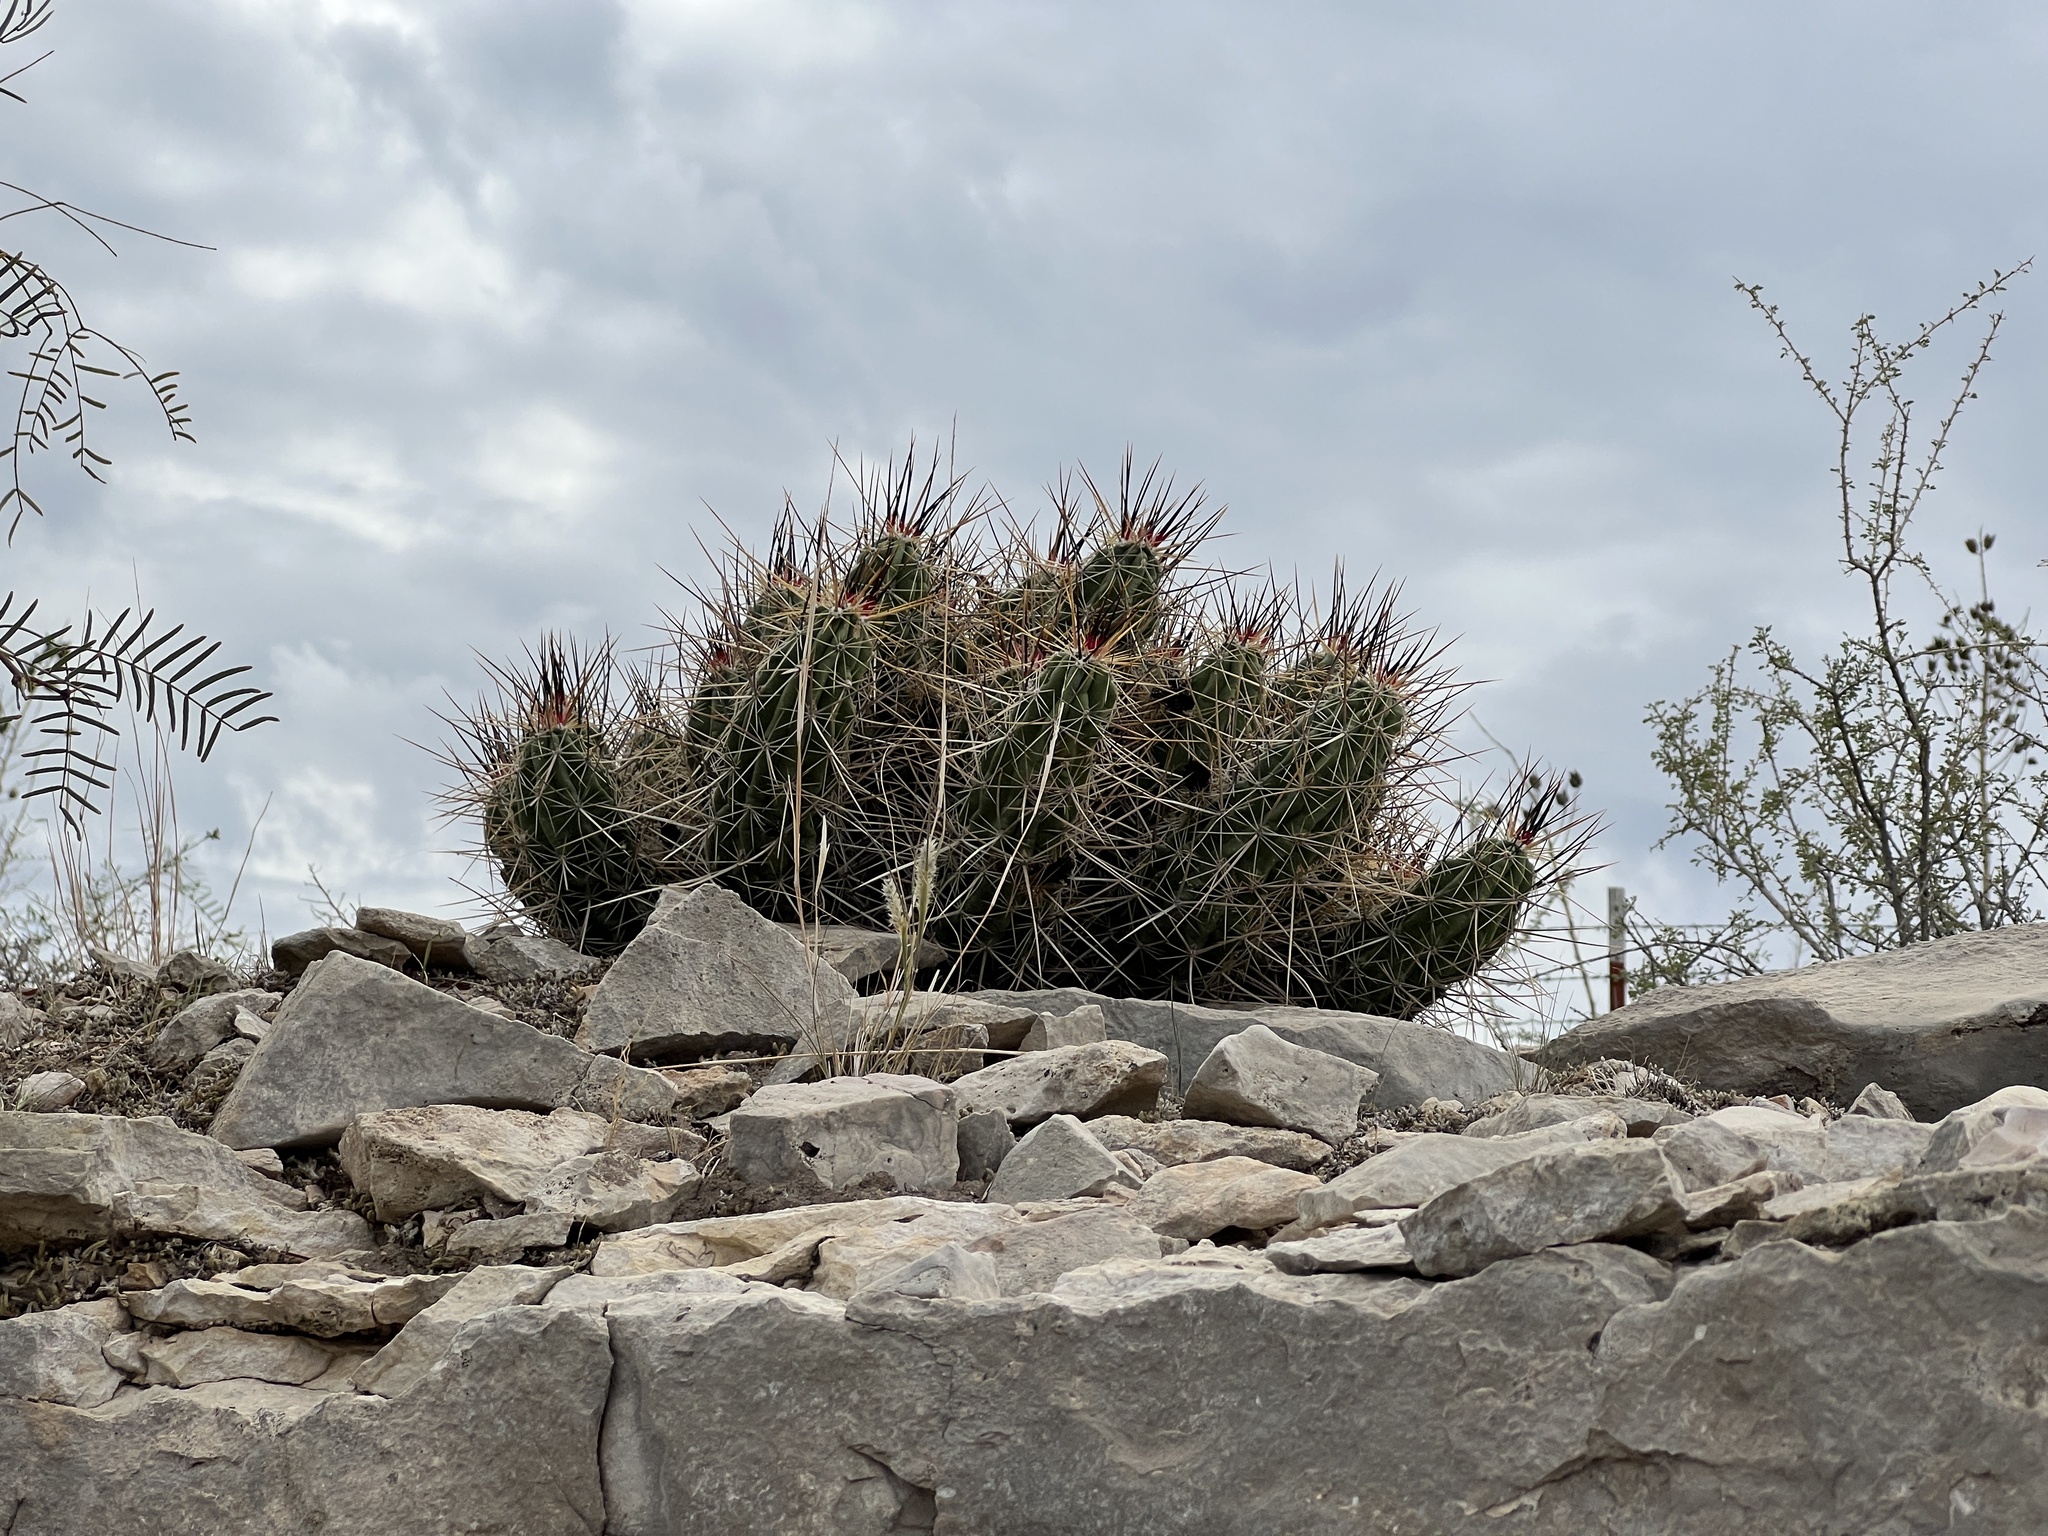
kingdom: Plantae
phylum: Tracheophyta
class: Magnoliopsida
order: Caryophyllales
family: Cactaceae
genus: Echinocereus
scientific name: Echinocereus enneacanthus
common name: Pitaya
